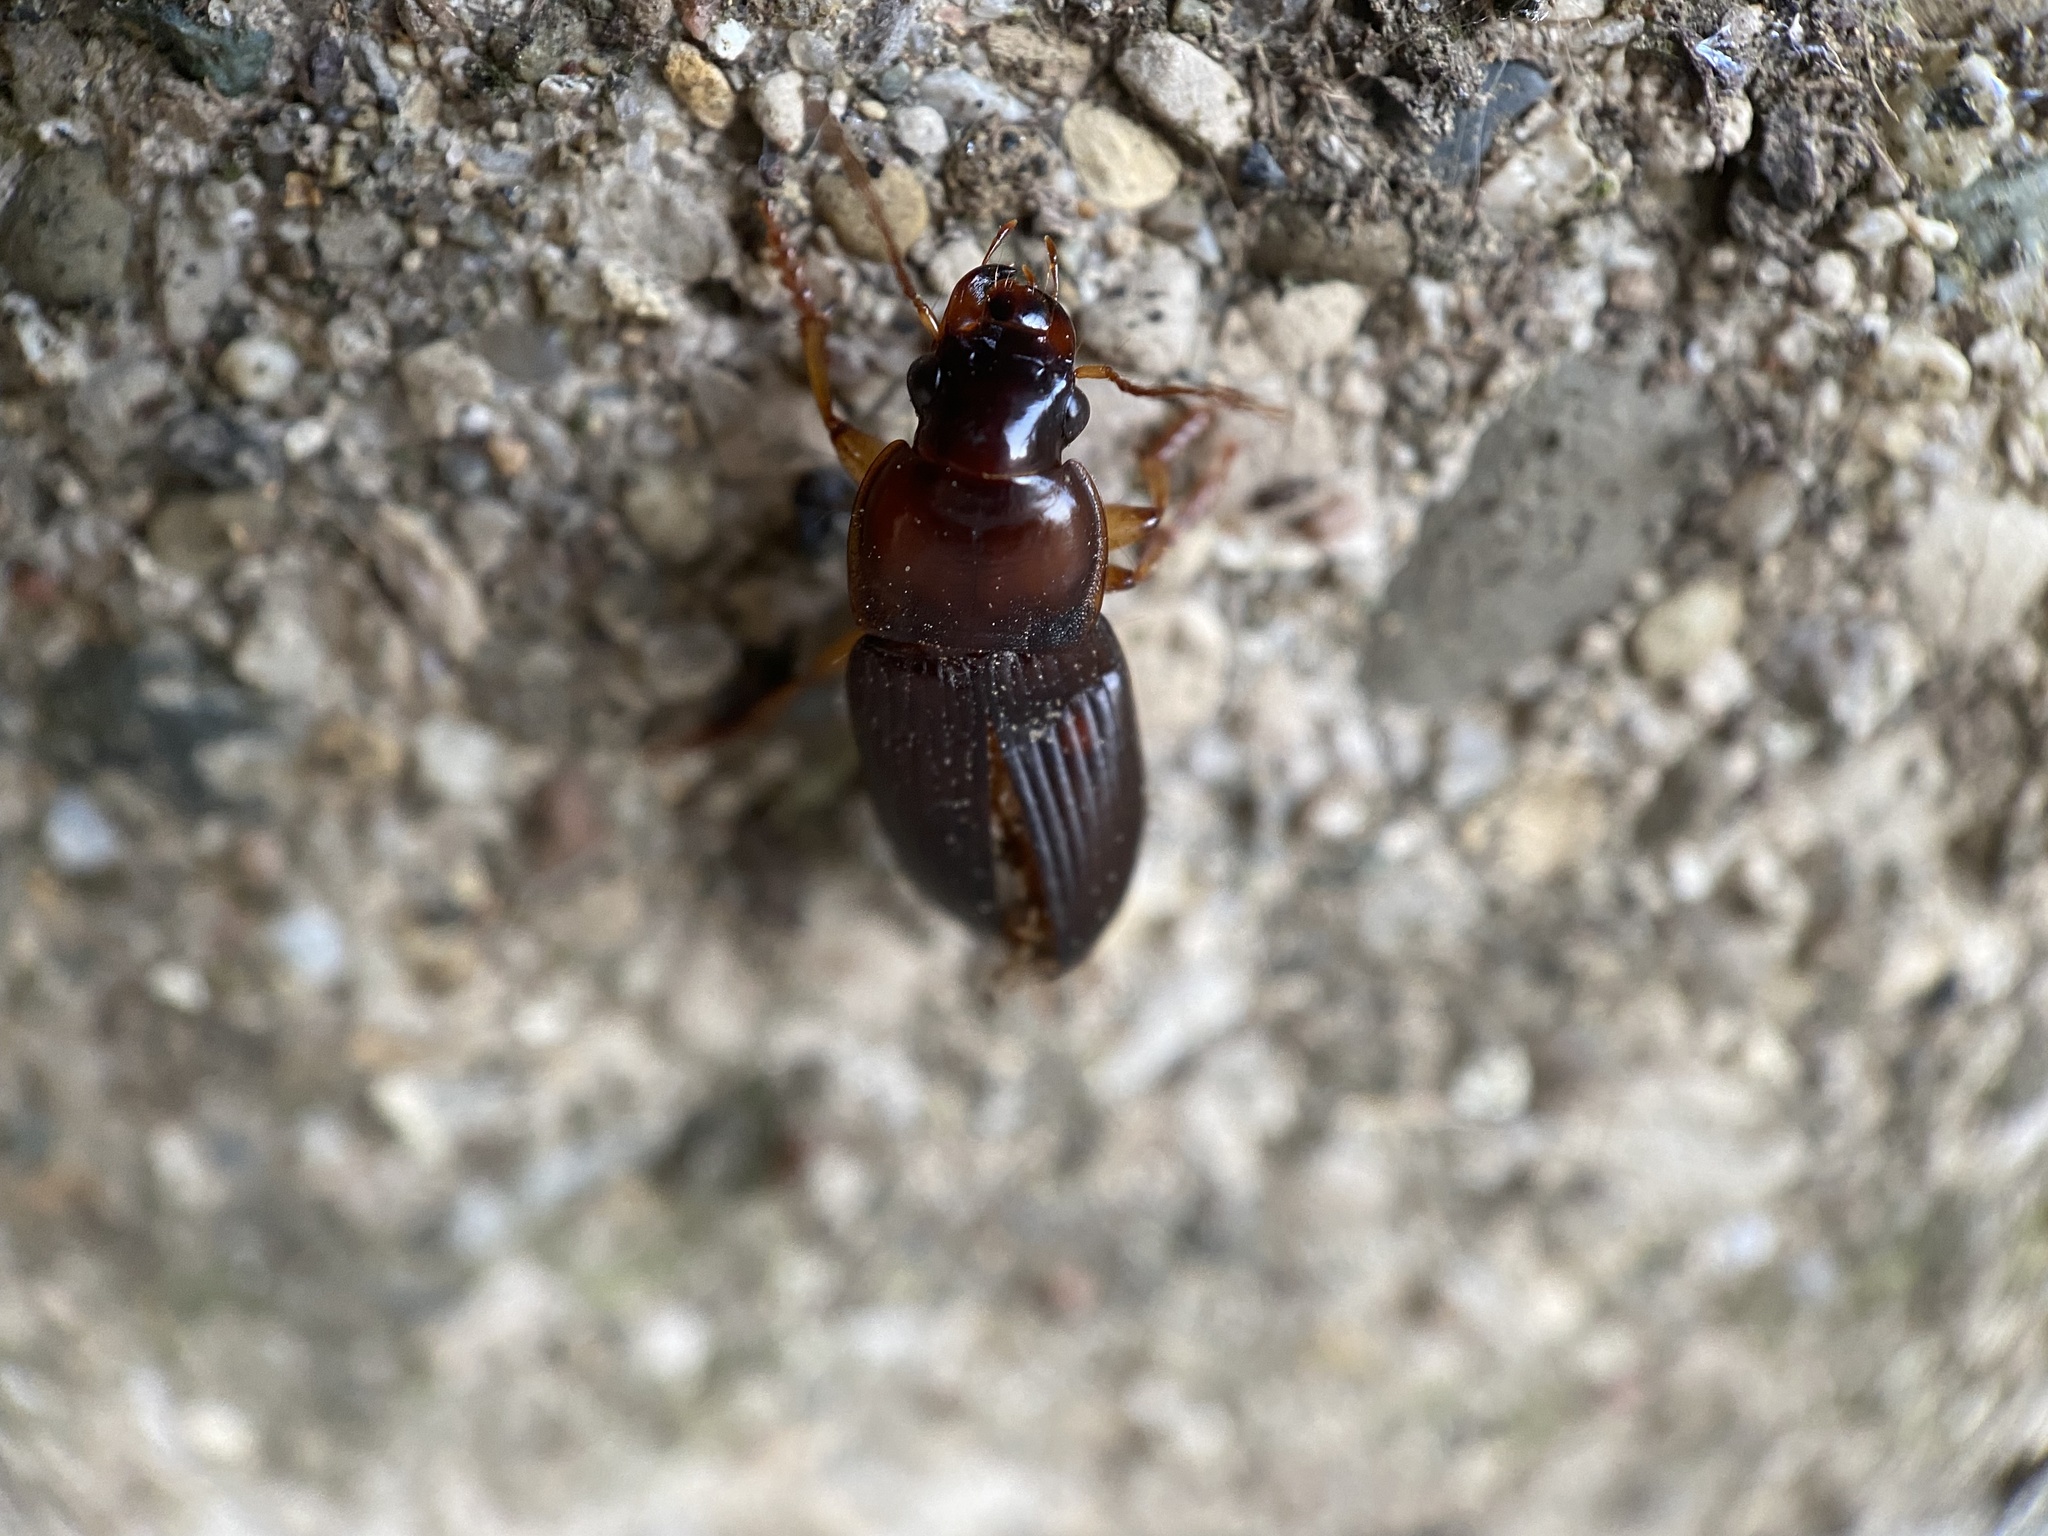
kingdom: Animalia
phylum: Arthropoda
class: Insecta
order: Coleoptera
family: Carabidae
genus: Harpalus
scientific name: Harpalus pensylvanicus
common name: Pennsylvania dingy ground beetle
